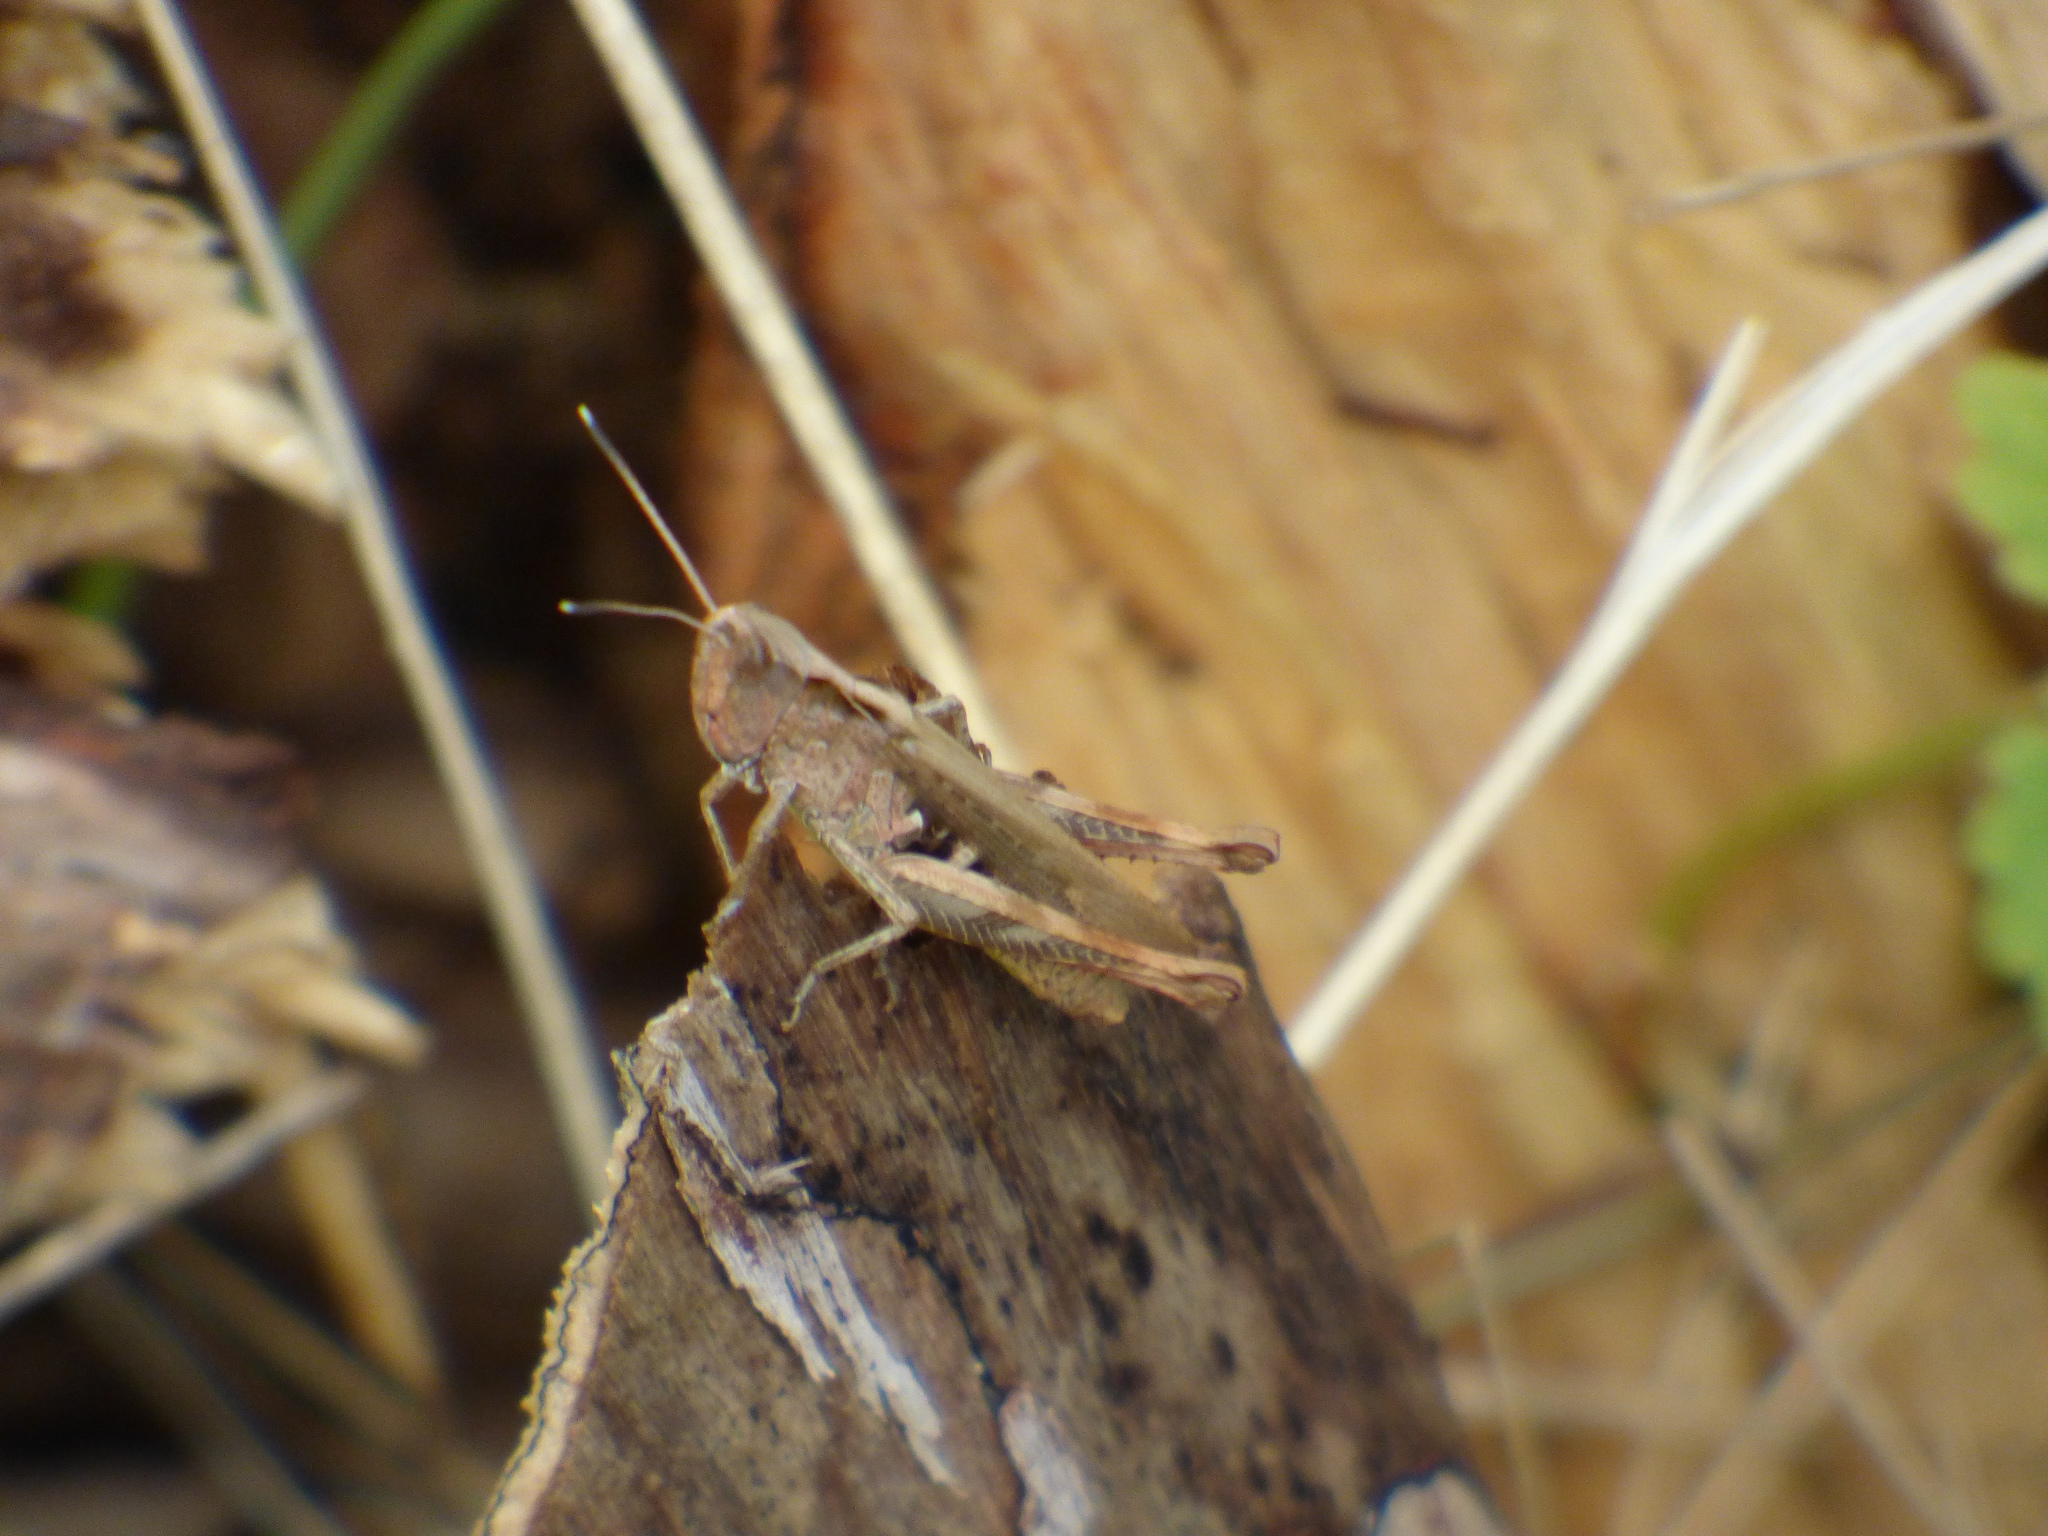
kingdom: Animalia
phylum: Arthropoda
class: Insecta
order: Orthoptera
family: Acrididae
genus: Gomphocerippus
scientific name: Gomphocerippus rufus
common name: Rufous grasshopper
